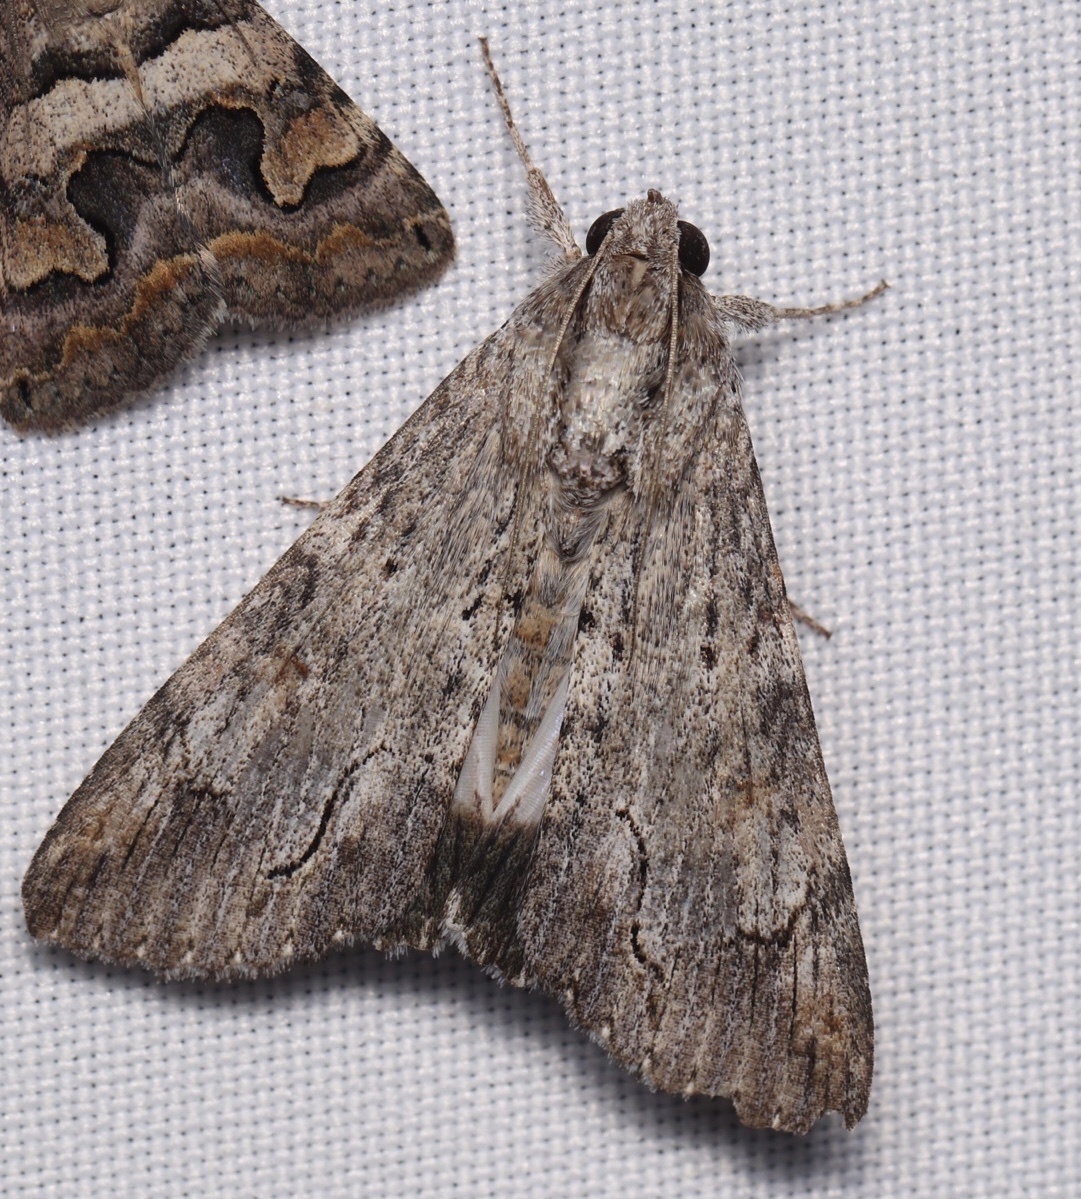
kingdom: Animalia
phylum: Arthropoda
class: Insecta
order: Lepidoptera
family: Erebidae
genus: Melipotis
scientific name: Melipotis acontioides
